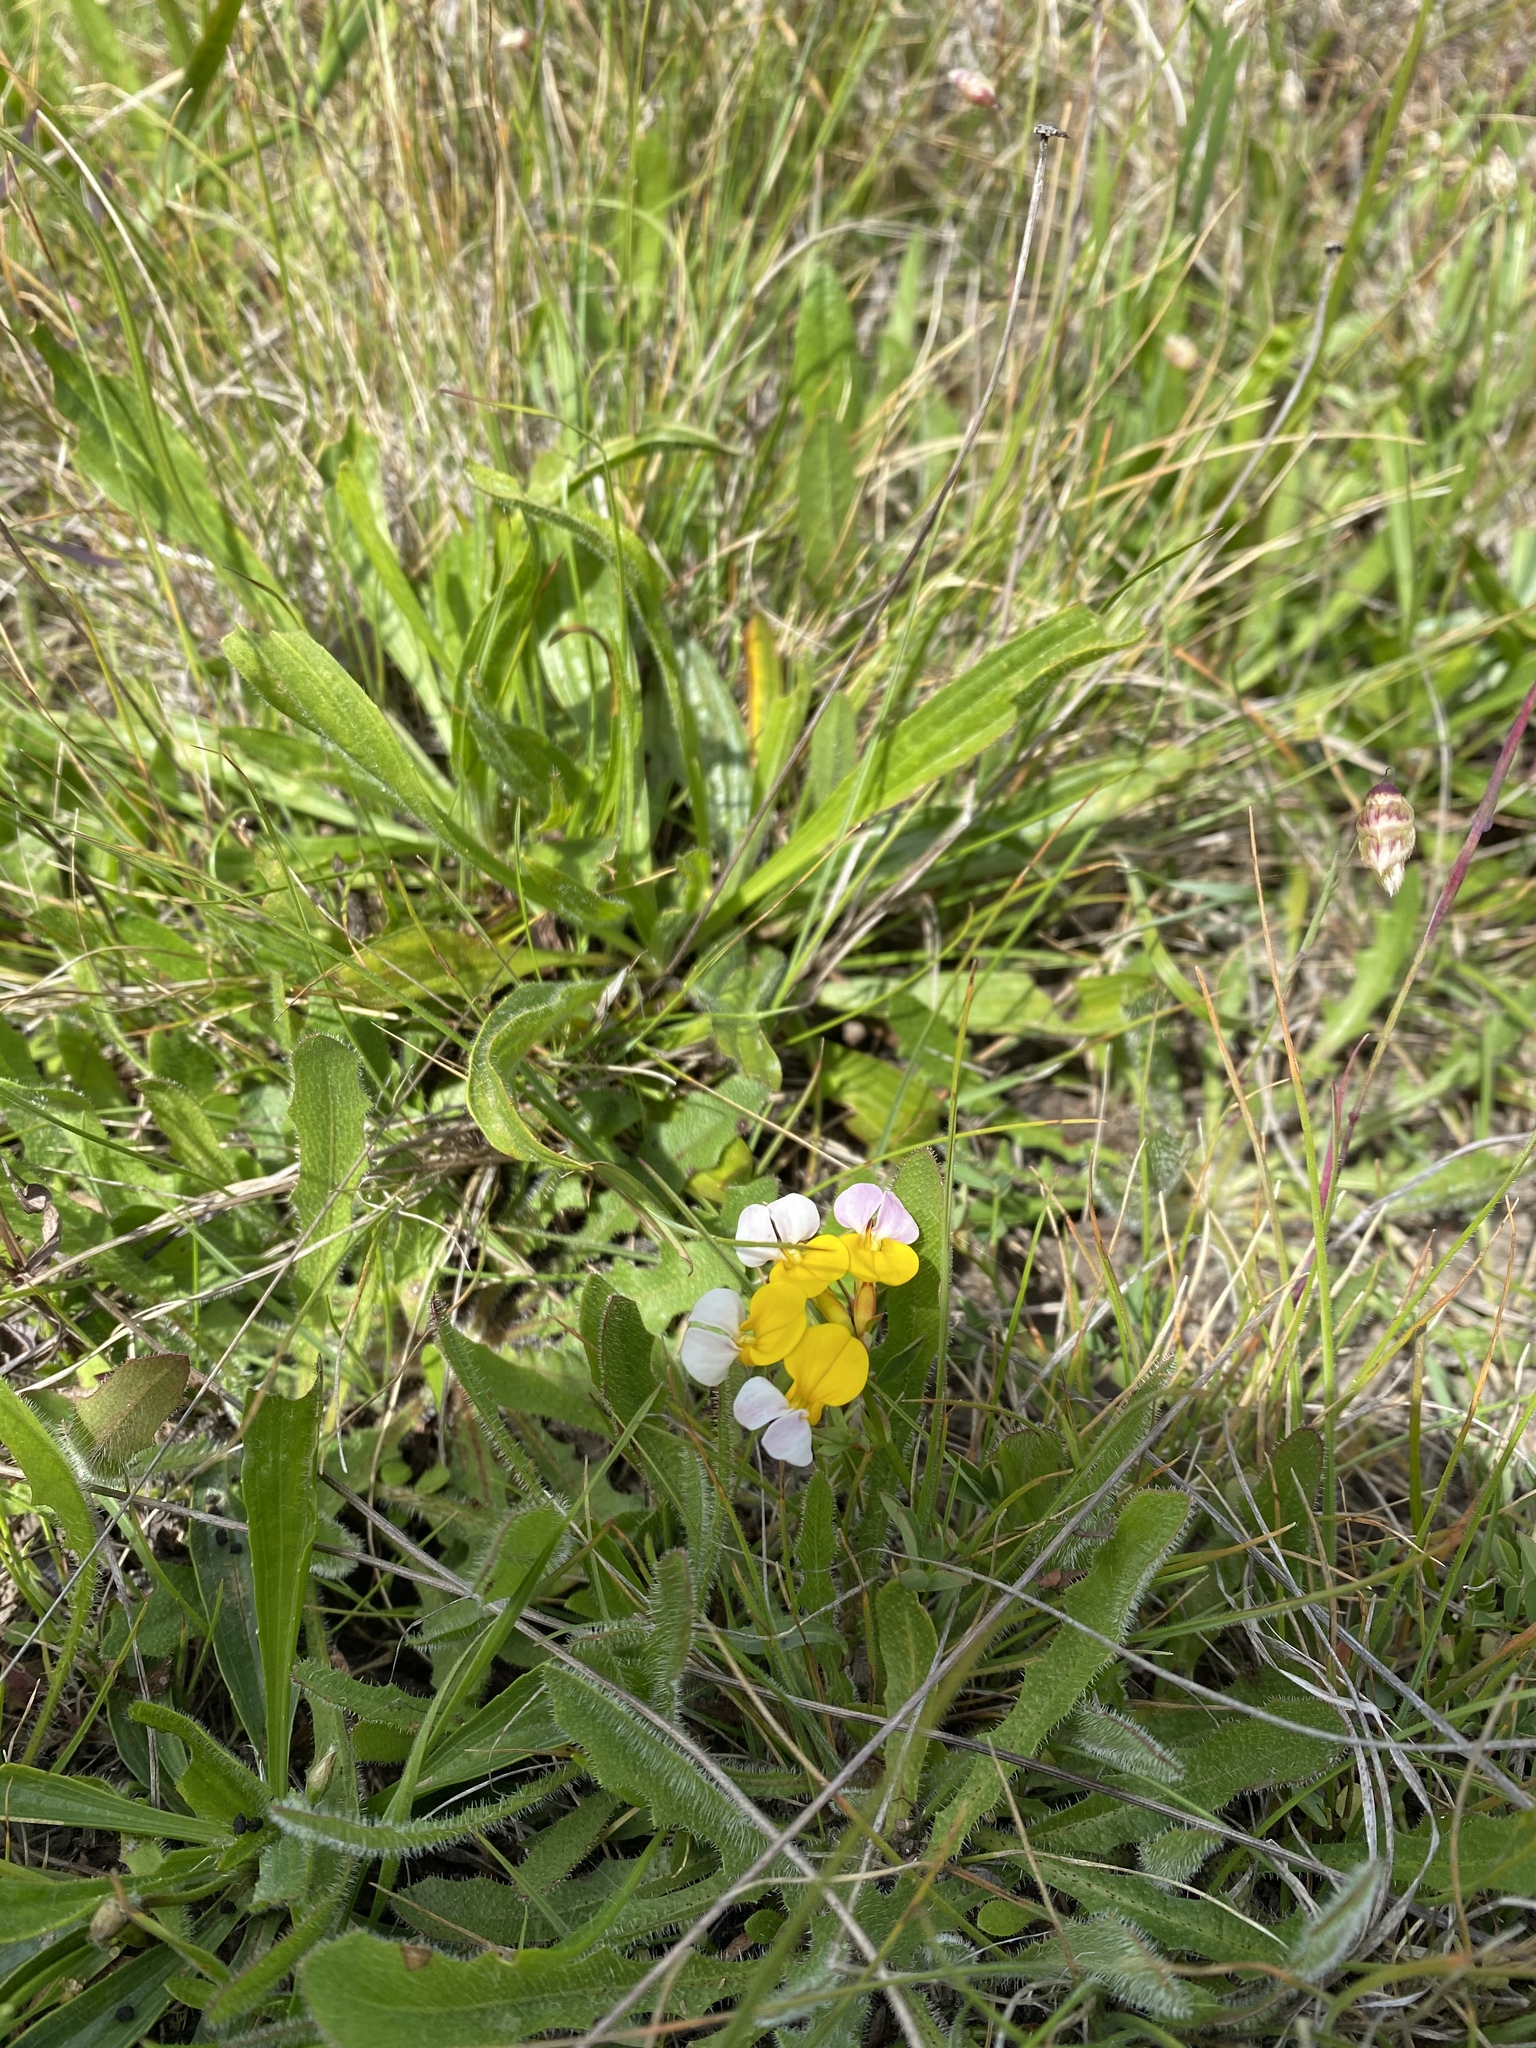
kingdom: Plantae
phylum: Tracheophyta
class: Magnoliopsida
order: Fabales
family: Fabaceae
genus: Hosackia
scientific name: Hosackia gracilis
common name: Seaside bird's-foot lotus
